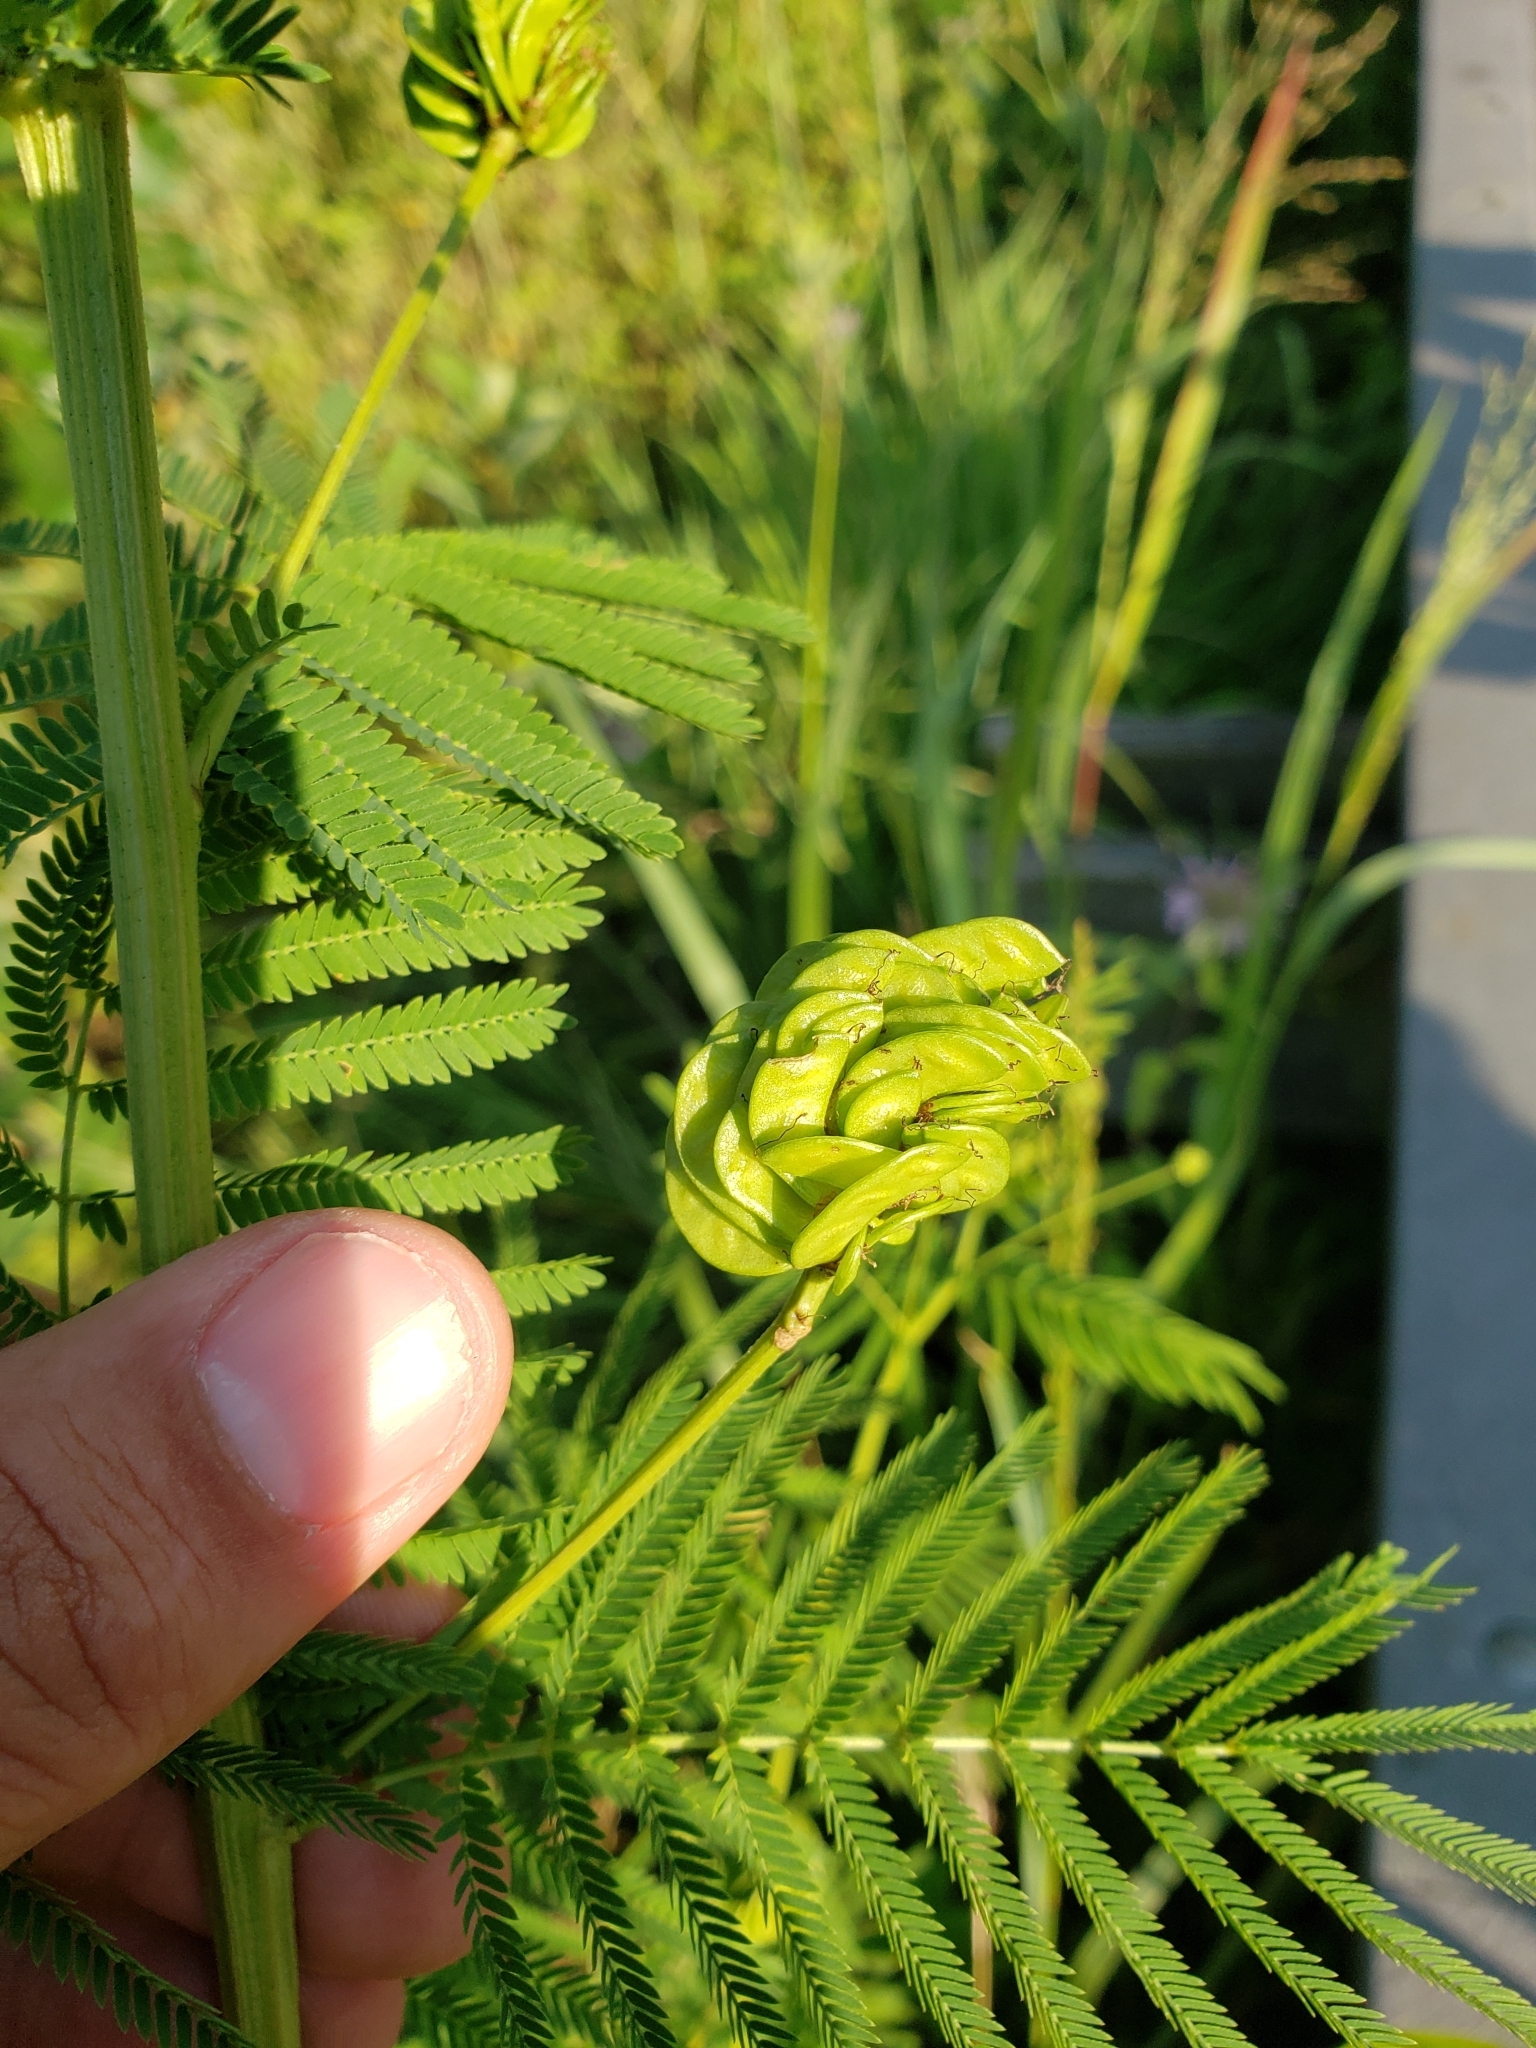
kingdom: Plantae
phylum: Tracheophyta
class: Magnoliopsida
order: Fabales
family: Fabaceae
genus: Desmanthus
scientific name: Desmanthus illinoensis
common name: Illinois bundle-flower
